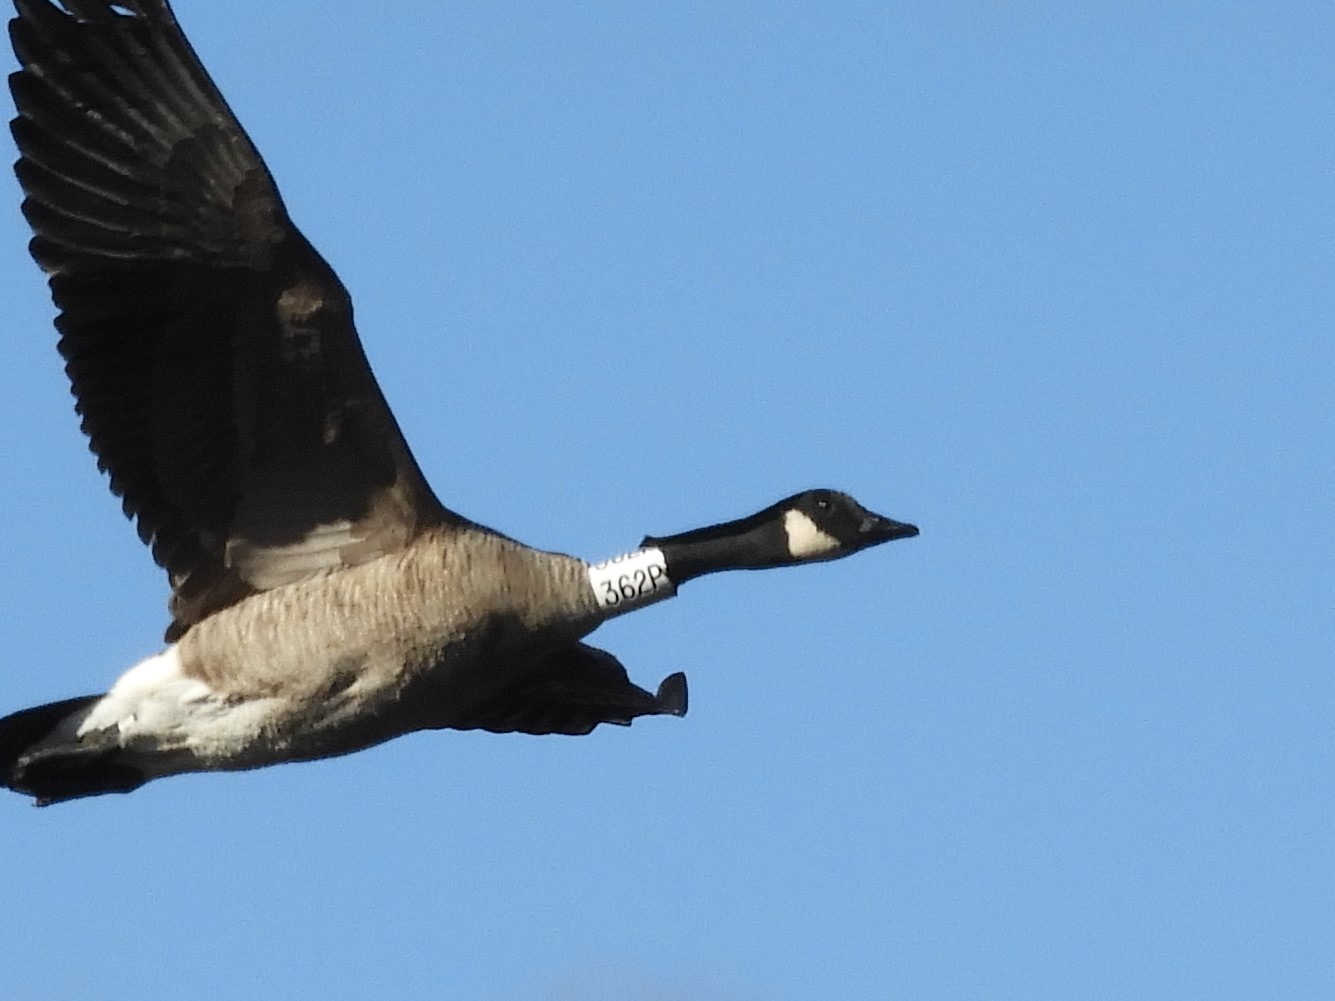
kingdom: Animalia
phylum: Chordata
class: Aves
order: Anseriformes
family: Anatidae
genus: Branta
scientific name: Branta canadensis
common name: Canada goose
